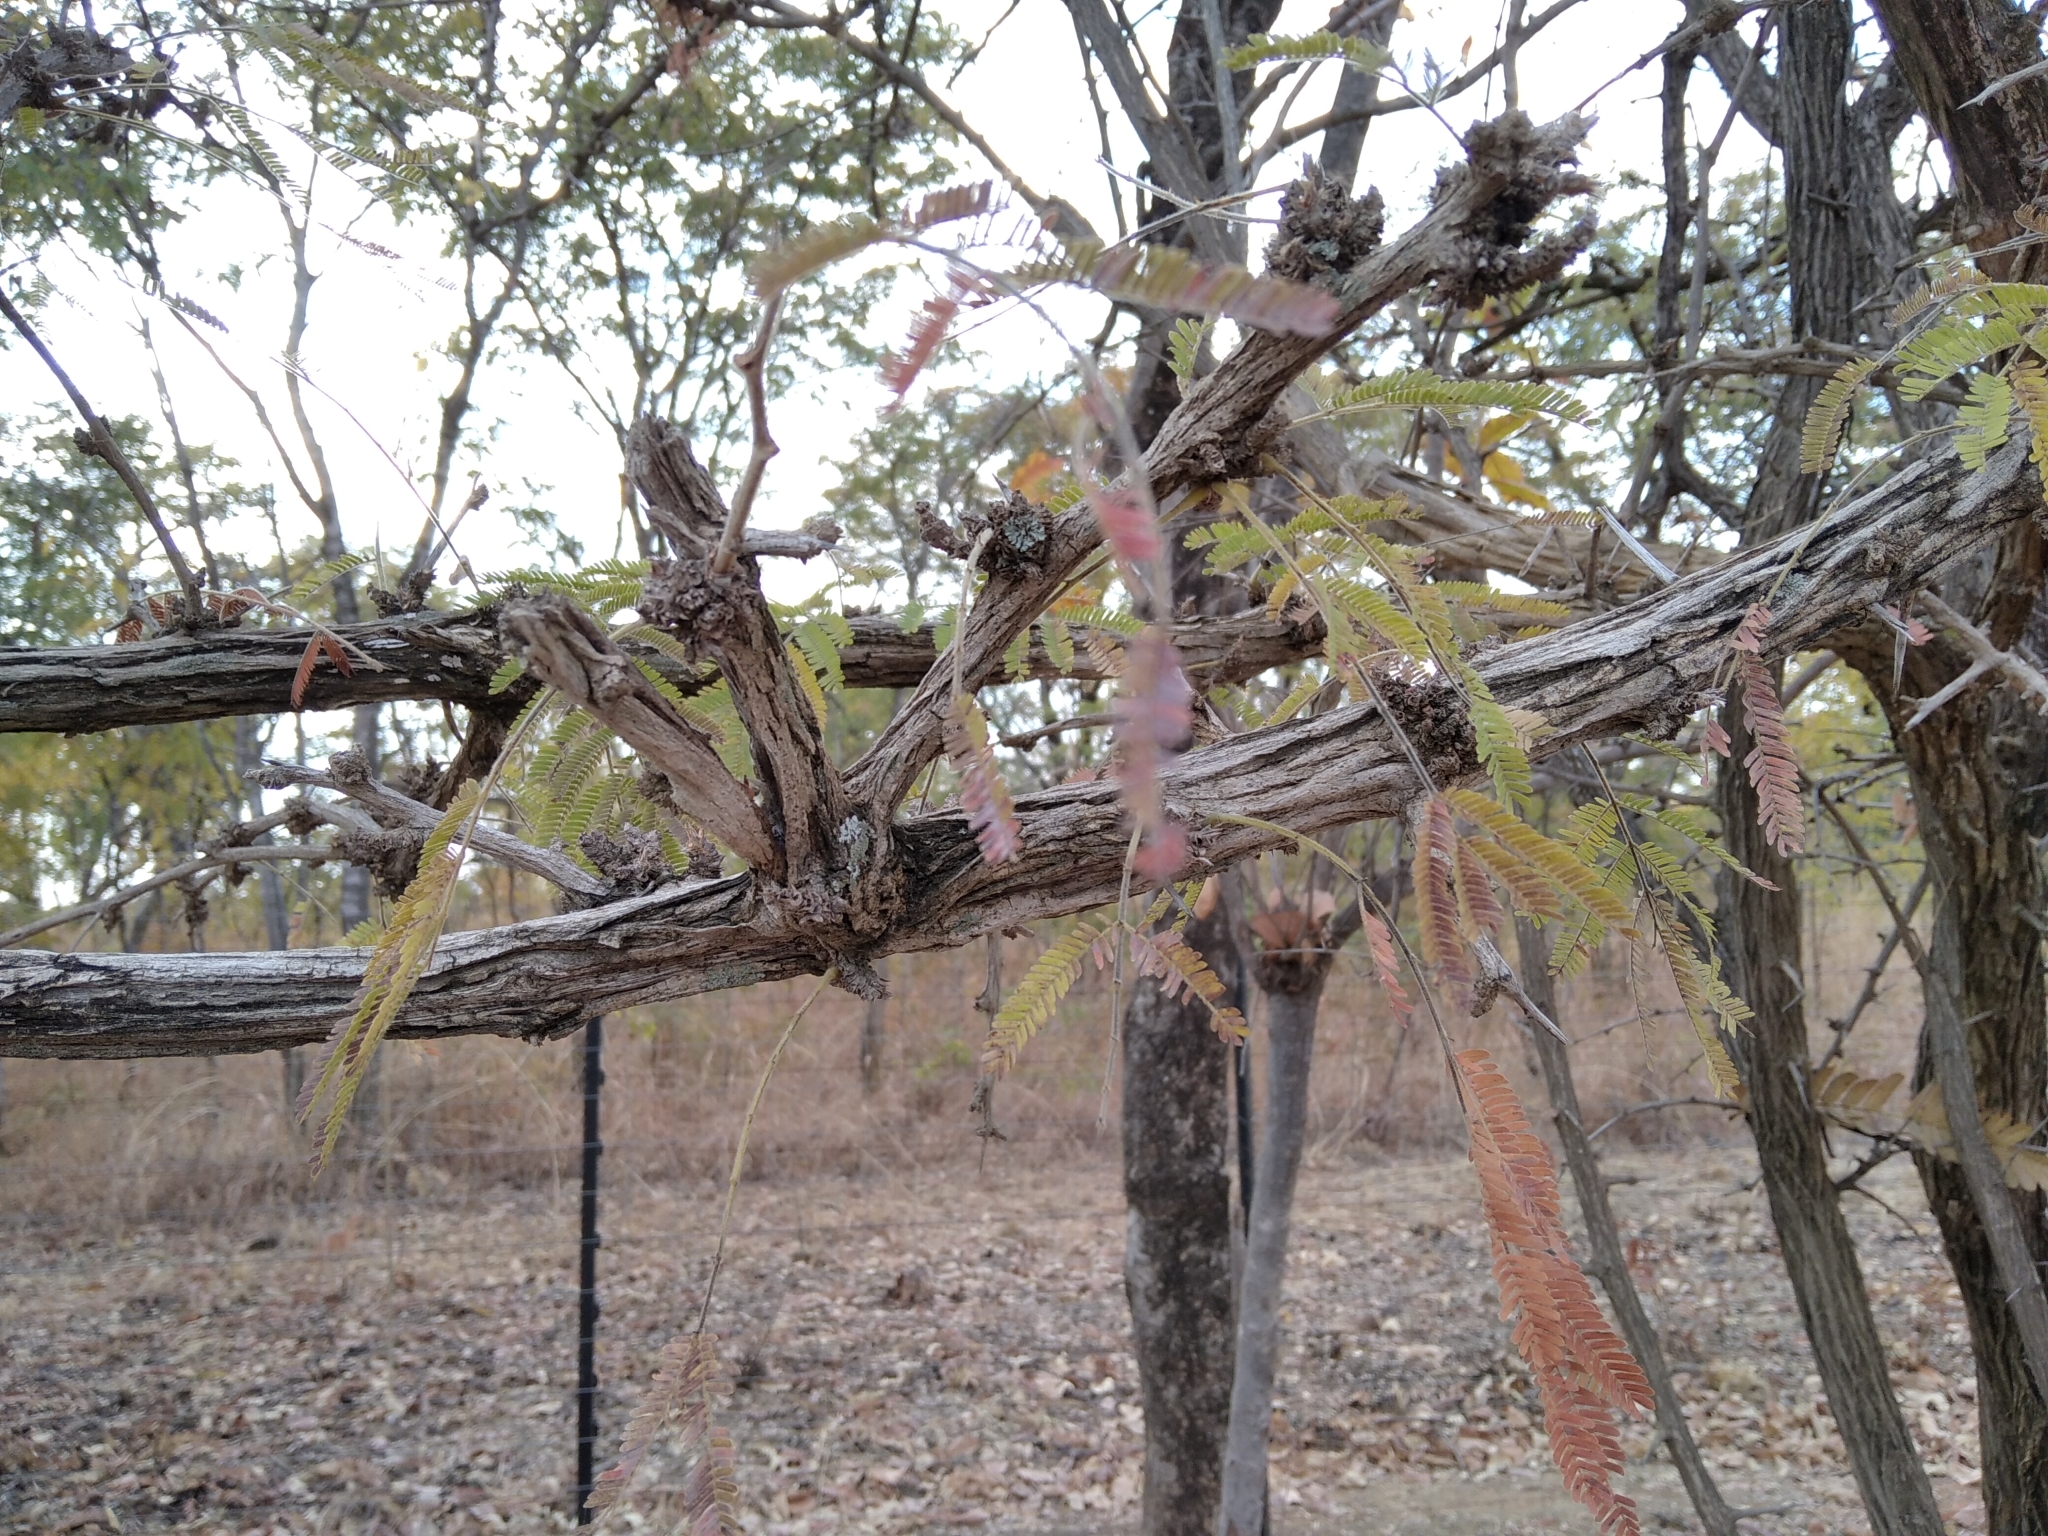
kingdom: Plantae
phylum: Tracheophyta
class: Magnoliopsida
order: Fabales
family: Fabaceae
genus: Dichrostachys
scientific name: Dichrostachys cinerea
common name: Sicklebush
